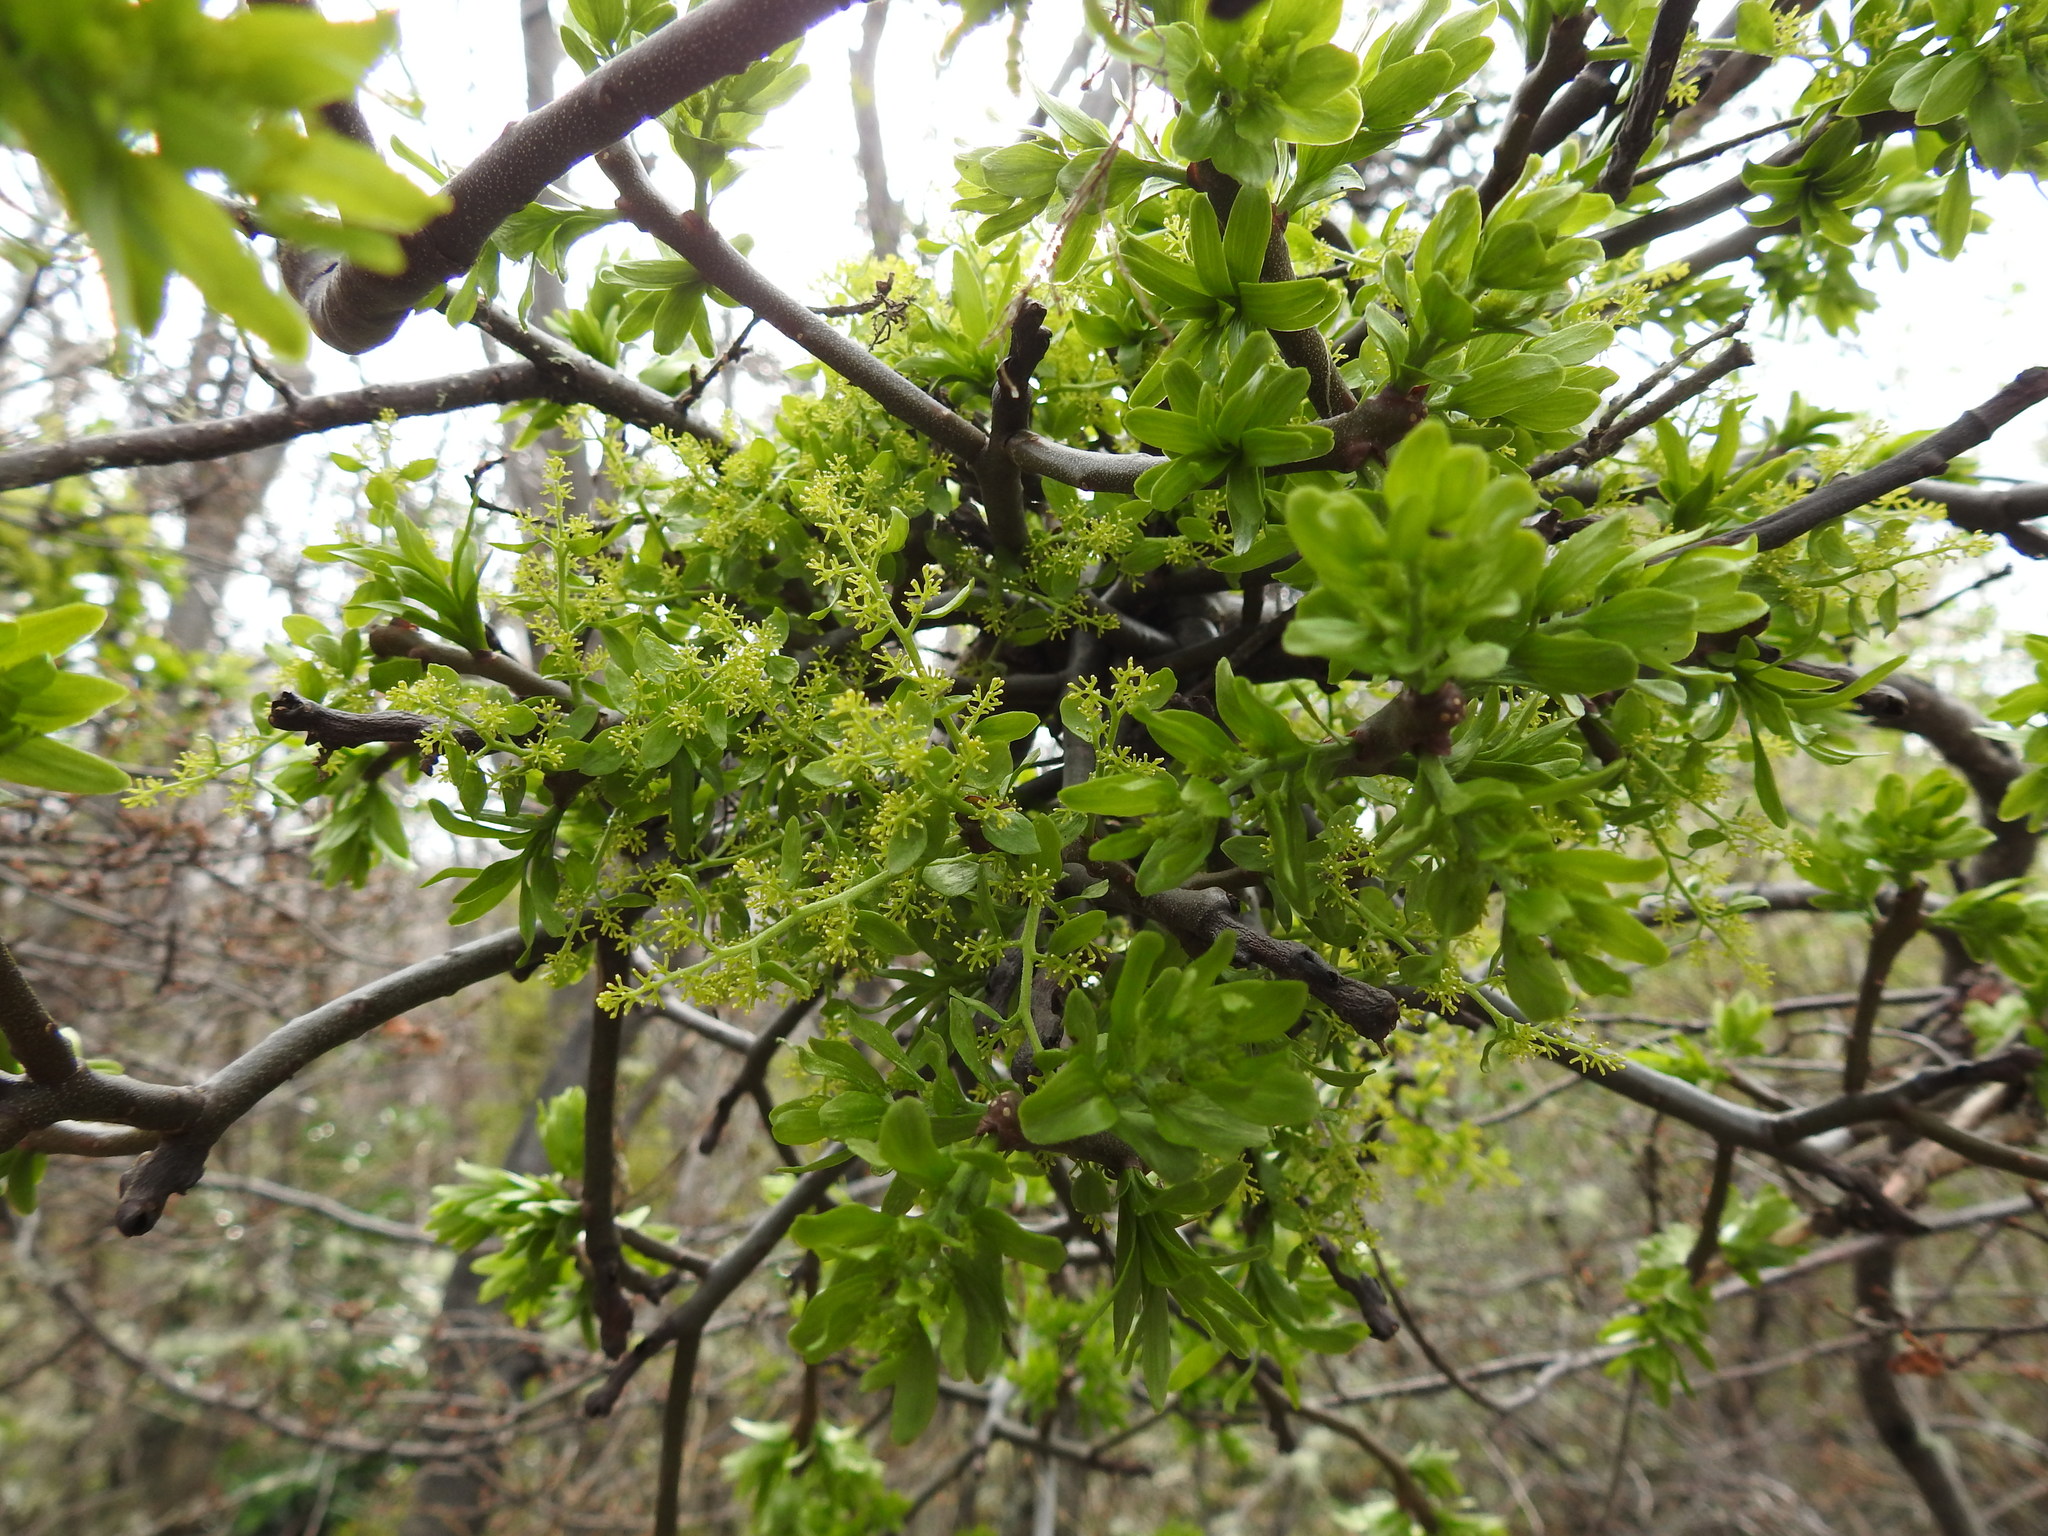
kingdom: Plantae
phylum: Tracheophyta
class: Magnoliopsida
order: Santalales
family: Misodendraceae
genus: Misodendrum
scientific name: Misodendrum quadriflorum
